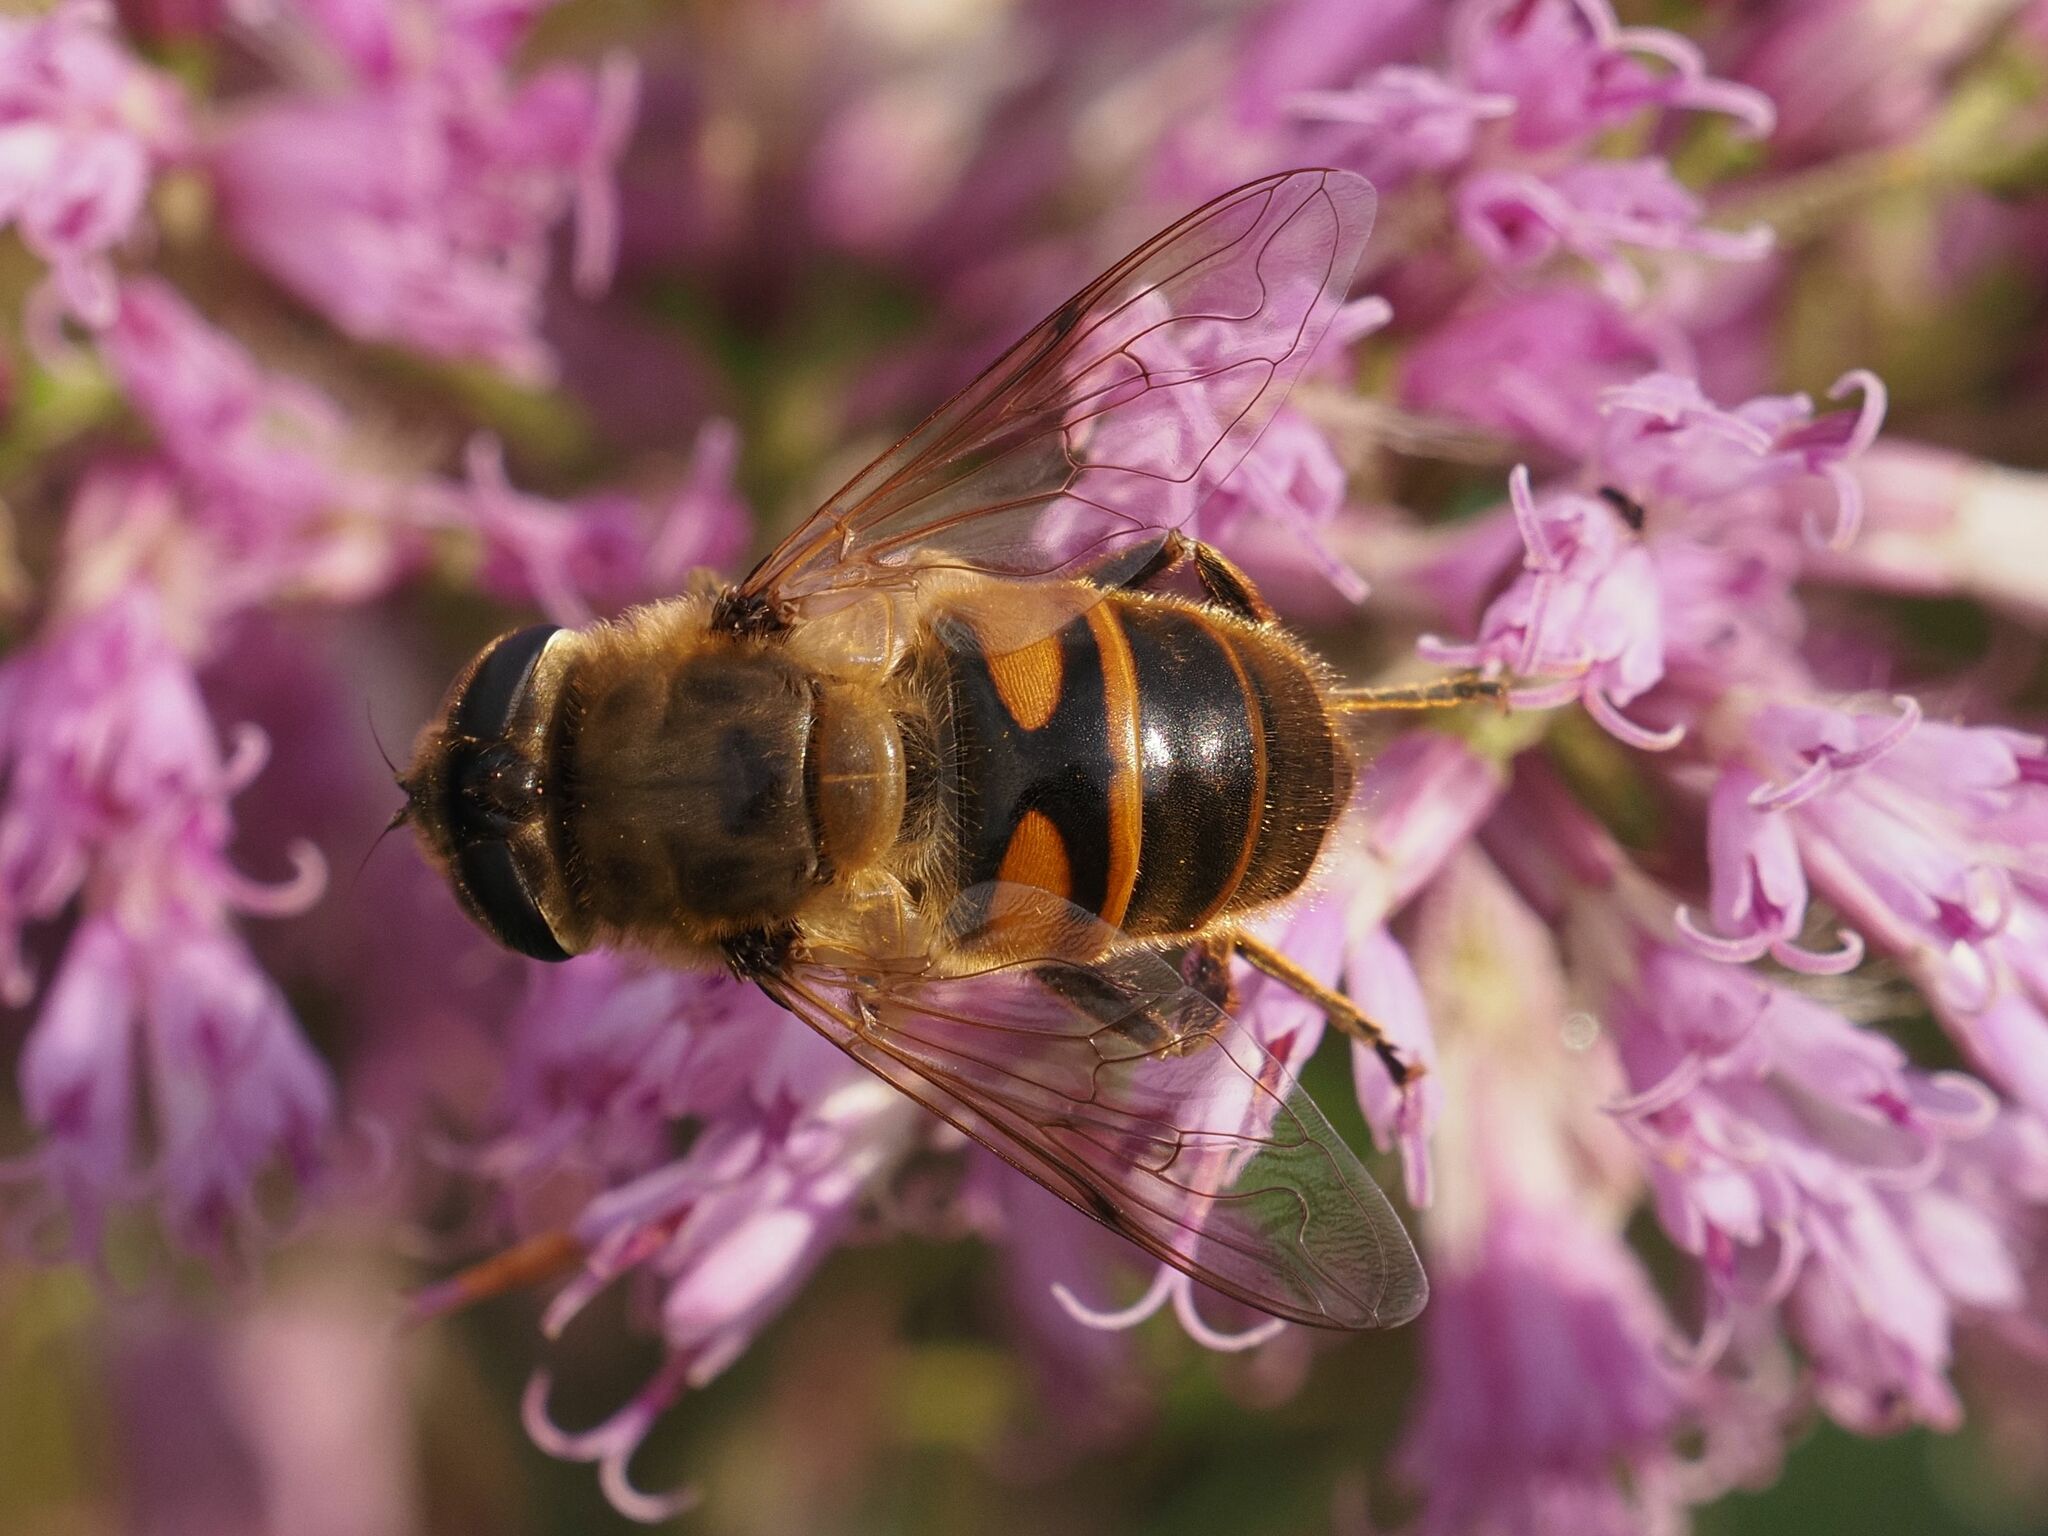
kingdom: Animalia
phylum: Arthropoda
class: Insecta
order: Diptera
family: Syrphidae
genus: Eristalis
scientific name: Eristalis tenax
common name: Drone fly
